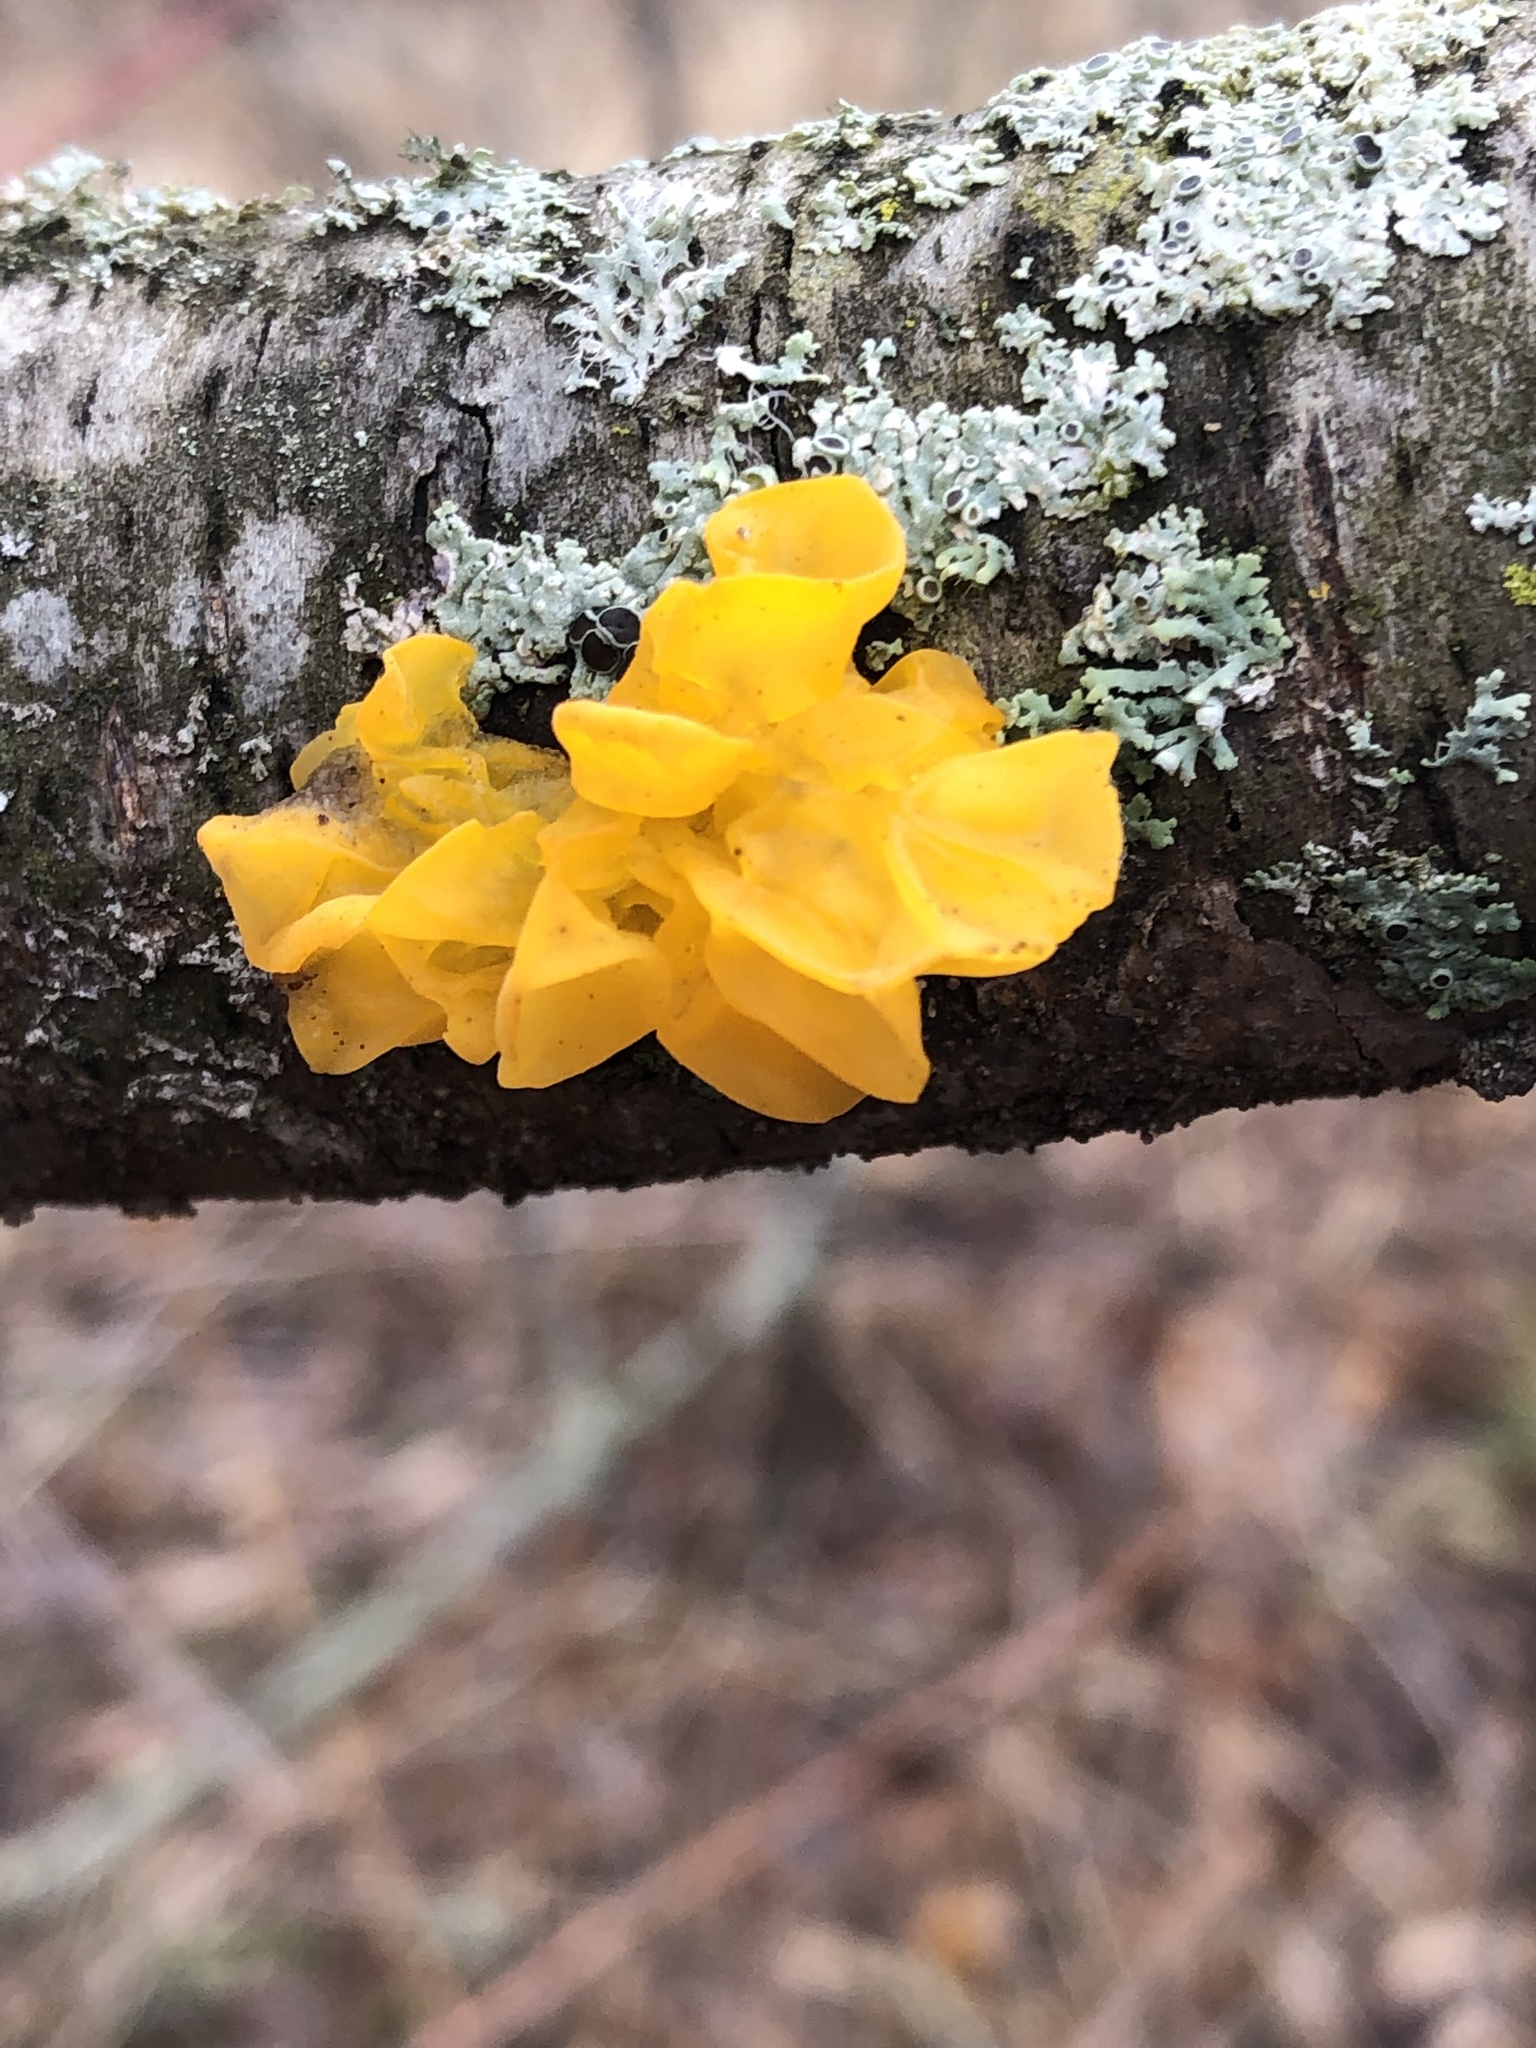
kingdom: Fungi
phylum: Basidiomycota
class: Tremellomycetes
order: Tremellales
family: Tremellaceae
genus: Tremella
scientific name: Tremella mesenterica
